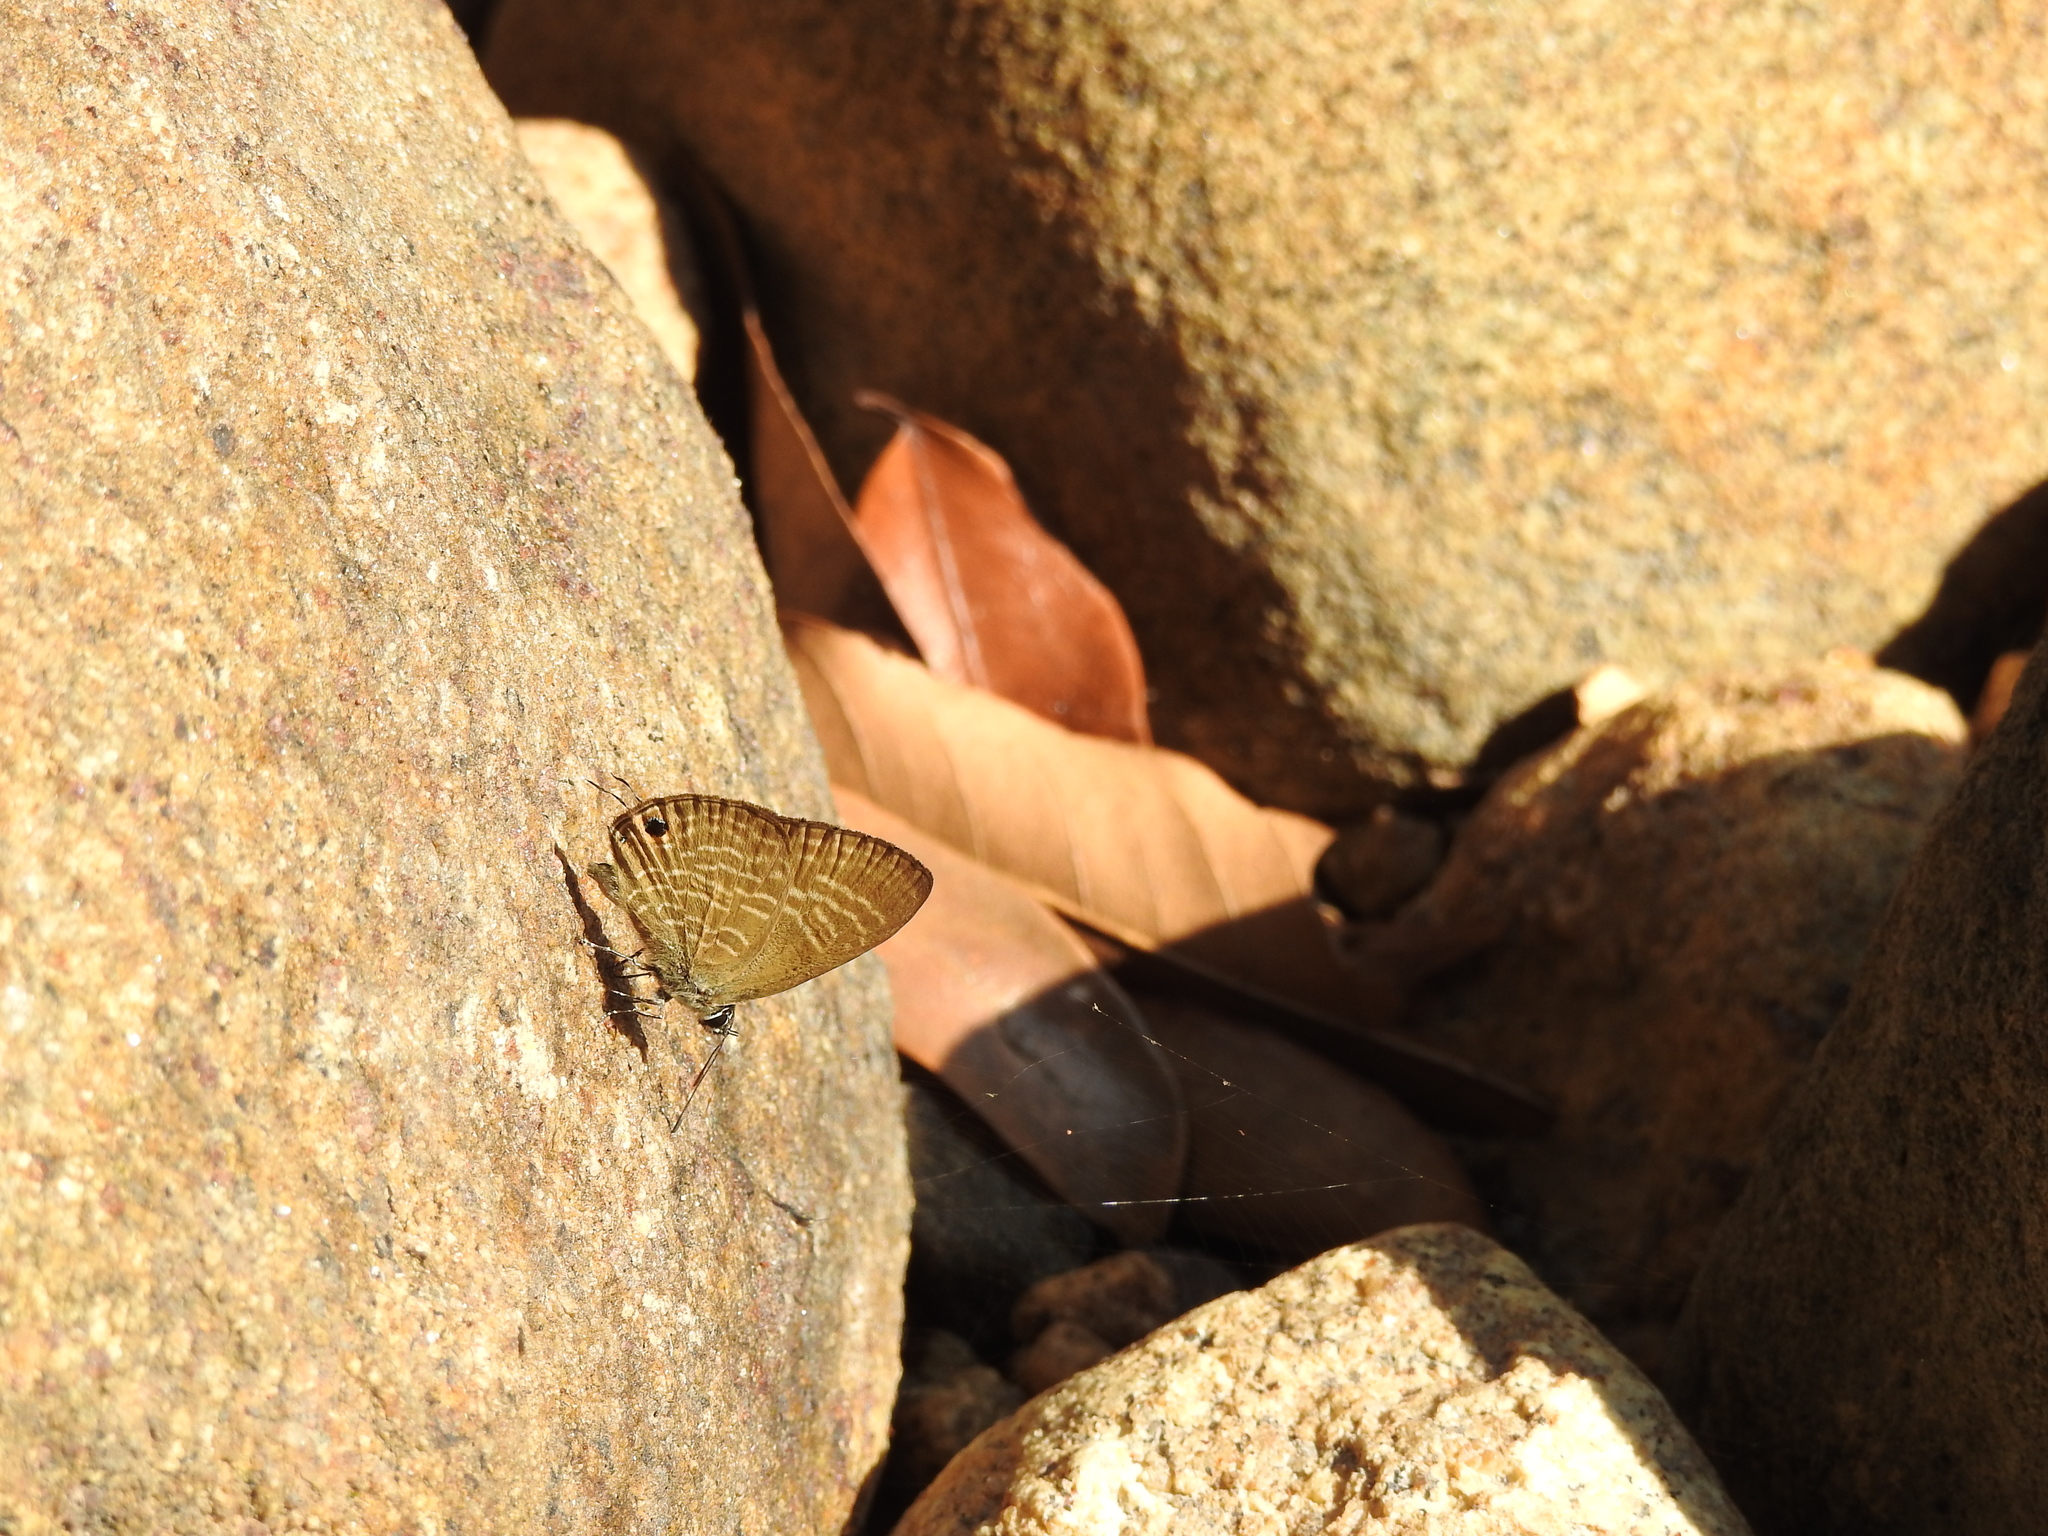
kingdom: Animalia
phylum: Arthropoda
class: Insecta
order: Lepidoptera
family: Lycaenidae
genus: Nacaduba
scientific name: Nacaduba pactolus
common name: Large fourline blue
